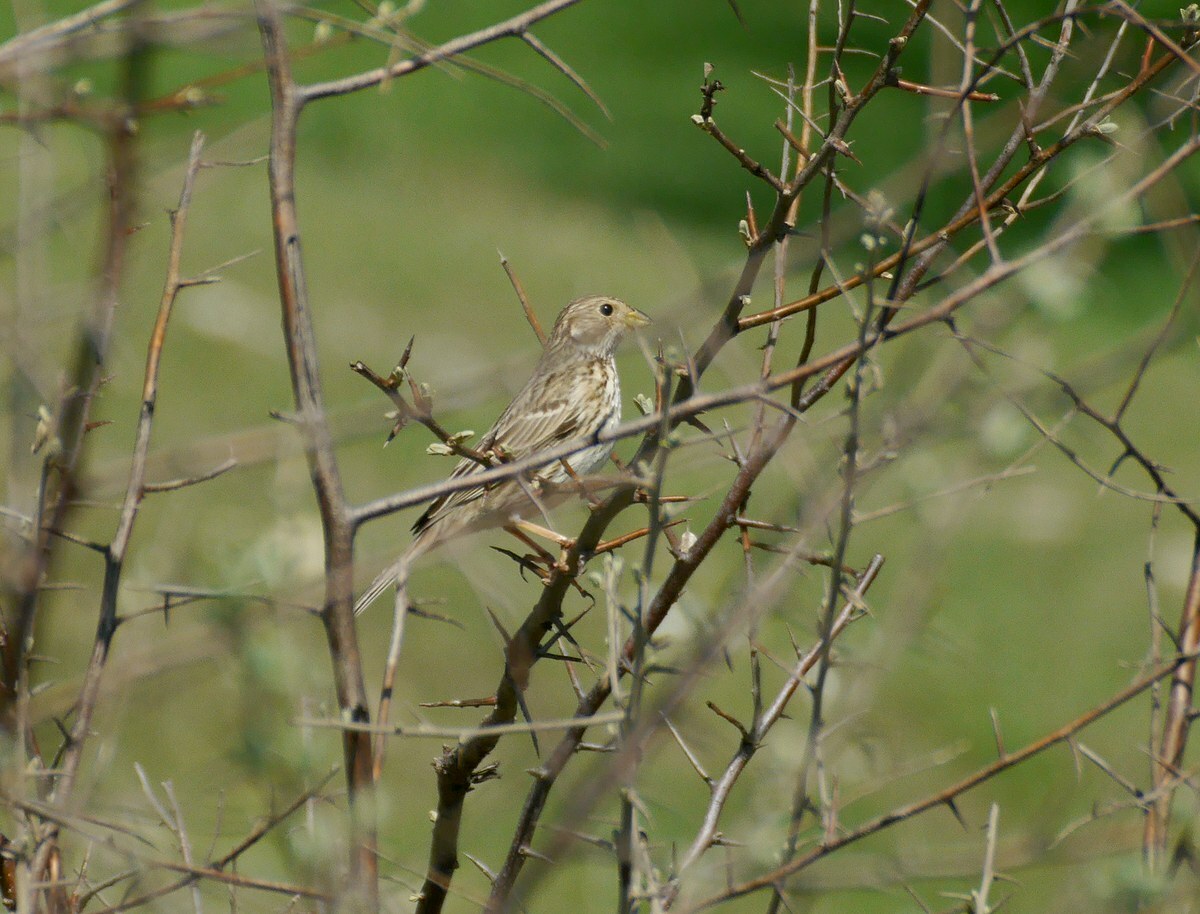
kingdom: Animalia
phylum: Chordata
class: Aves
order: Passeriformes
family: Emberizidae
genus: Emberiza
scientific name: Emberiza calandra
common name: Corn bunting
